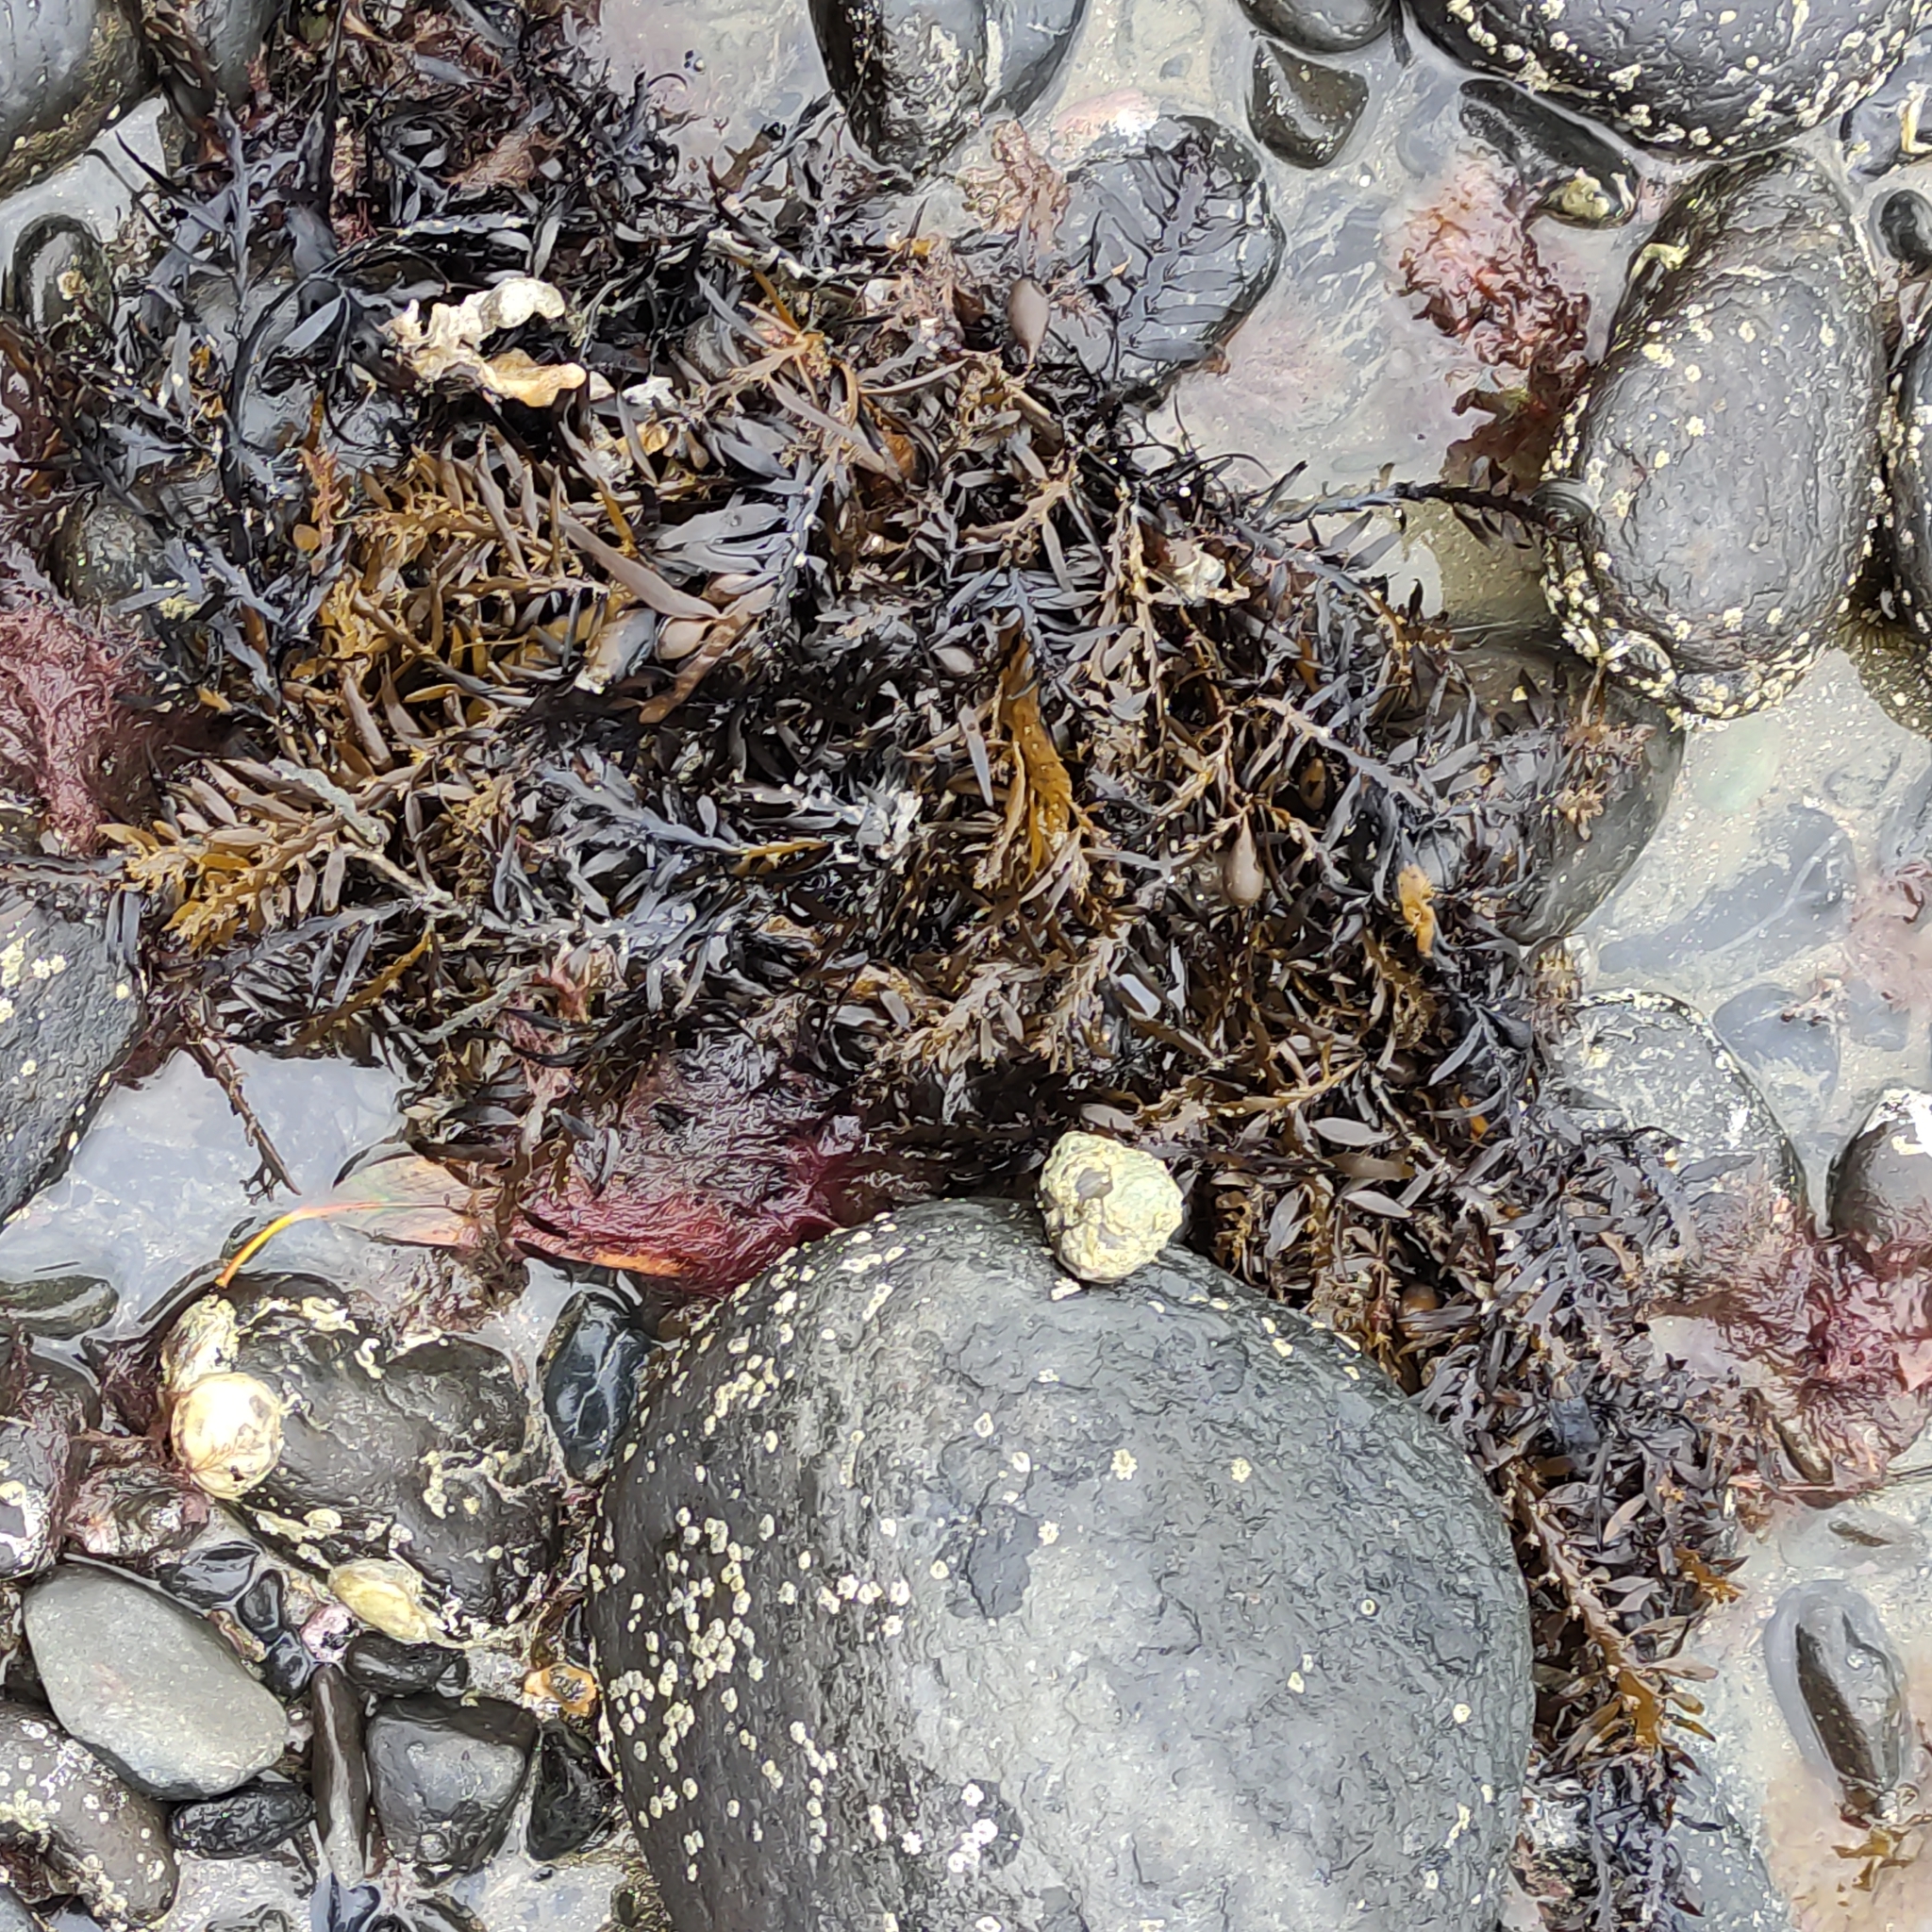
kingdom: Chromista
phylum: Ochrophyta
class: Phaeophyceae
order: Fucales
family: Sargassaceae
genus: Carpophyllum
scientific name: Carpophyllum maschalocarpum
